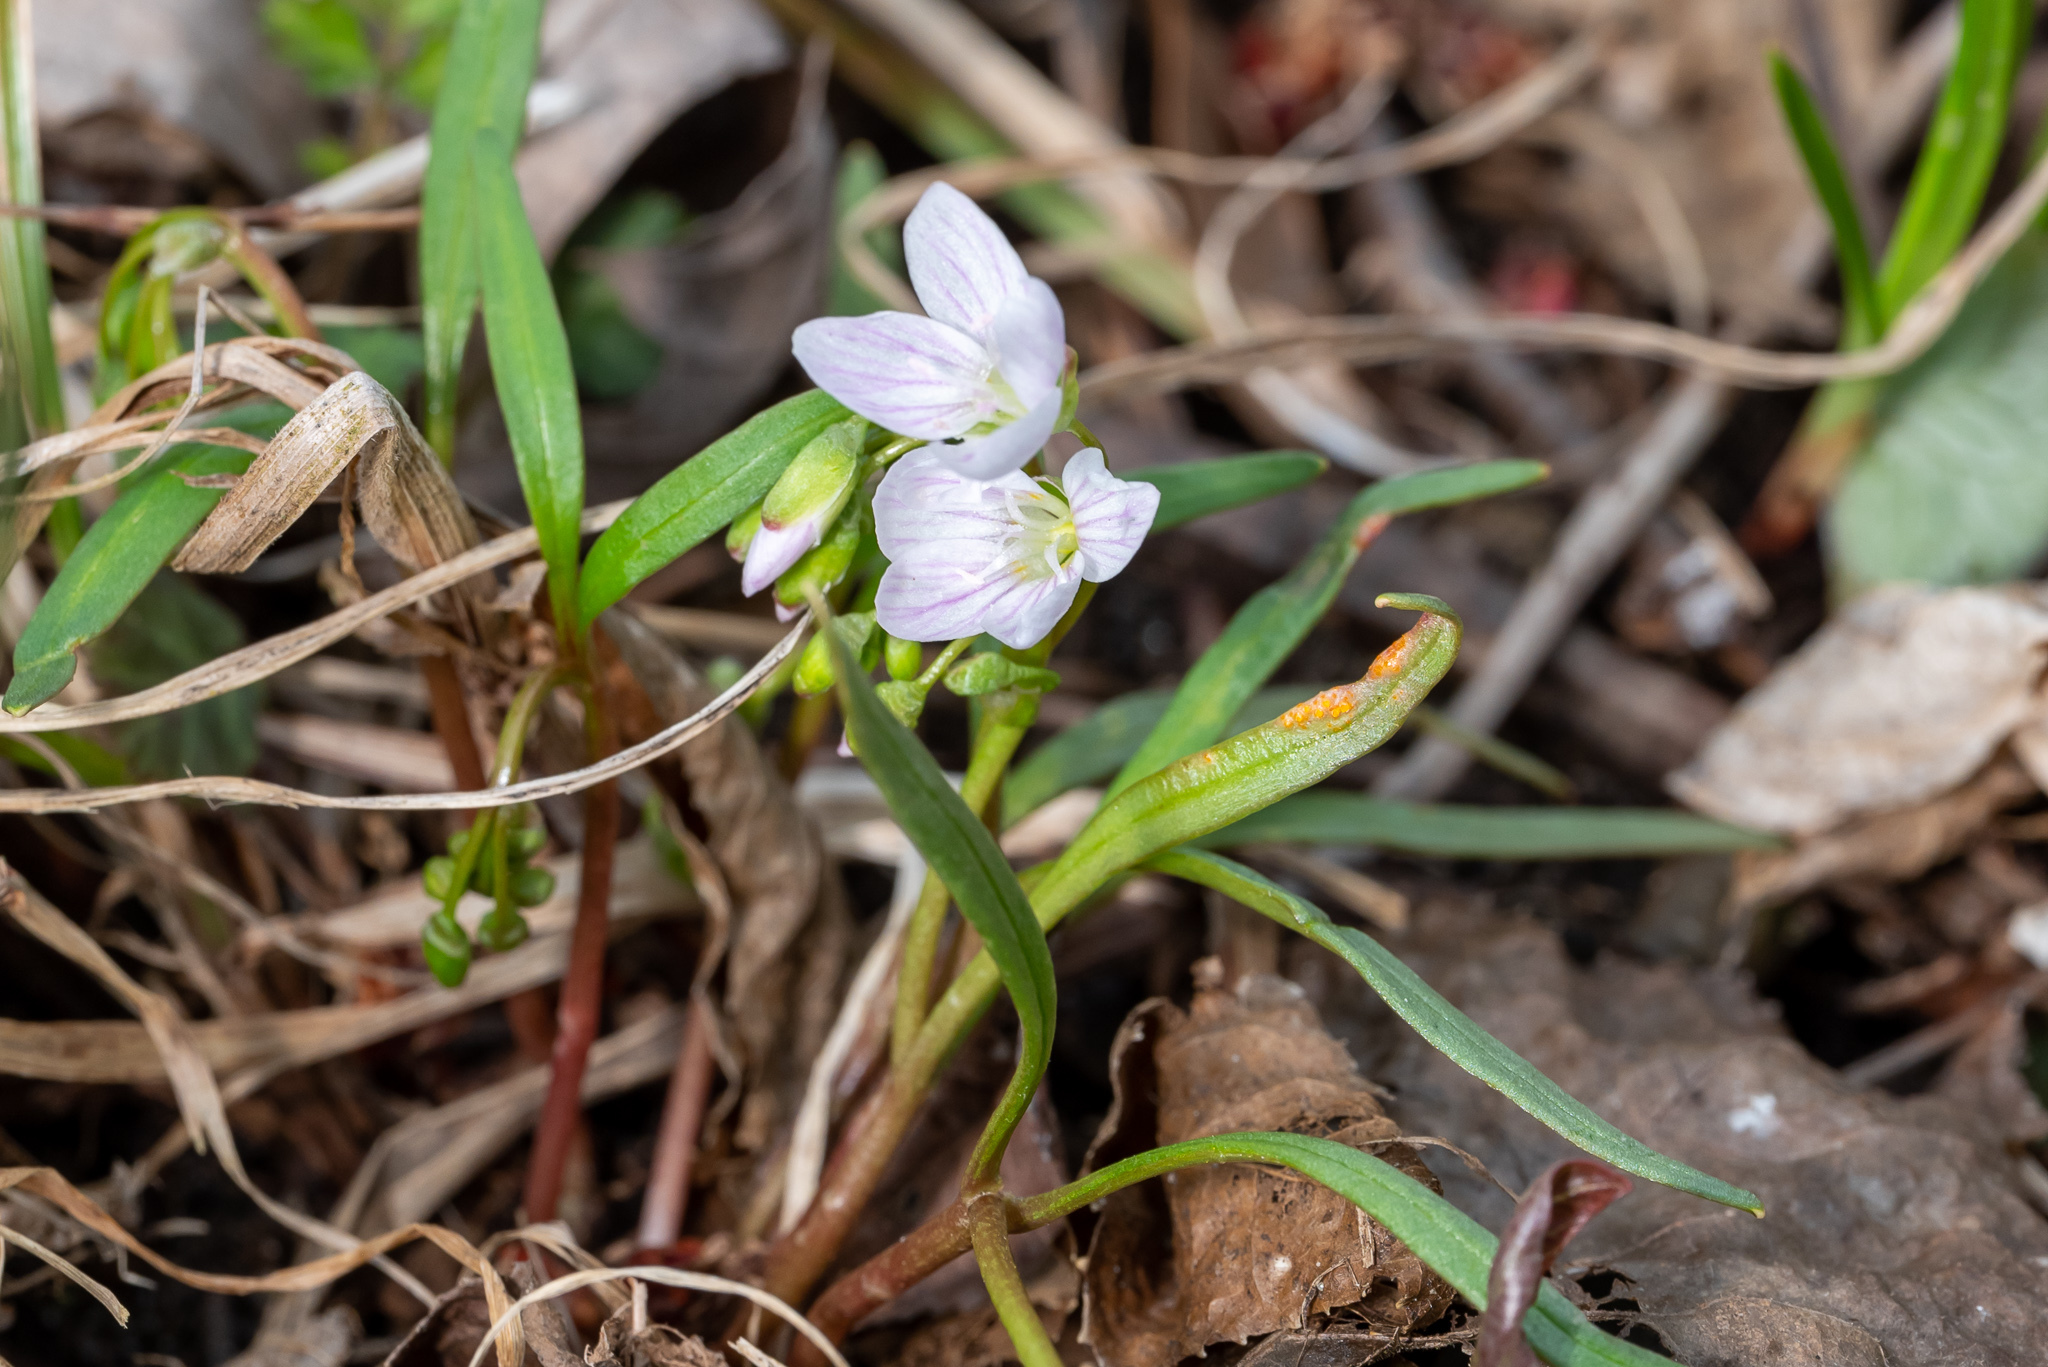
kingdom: Plantae
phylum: Tracheophyta
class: Magnoliopsida
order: Caryophyllales
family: Montiaceae
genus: Claytonia
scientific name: Claytonia virginica
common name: Virginia springbeauty
